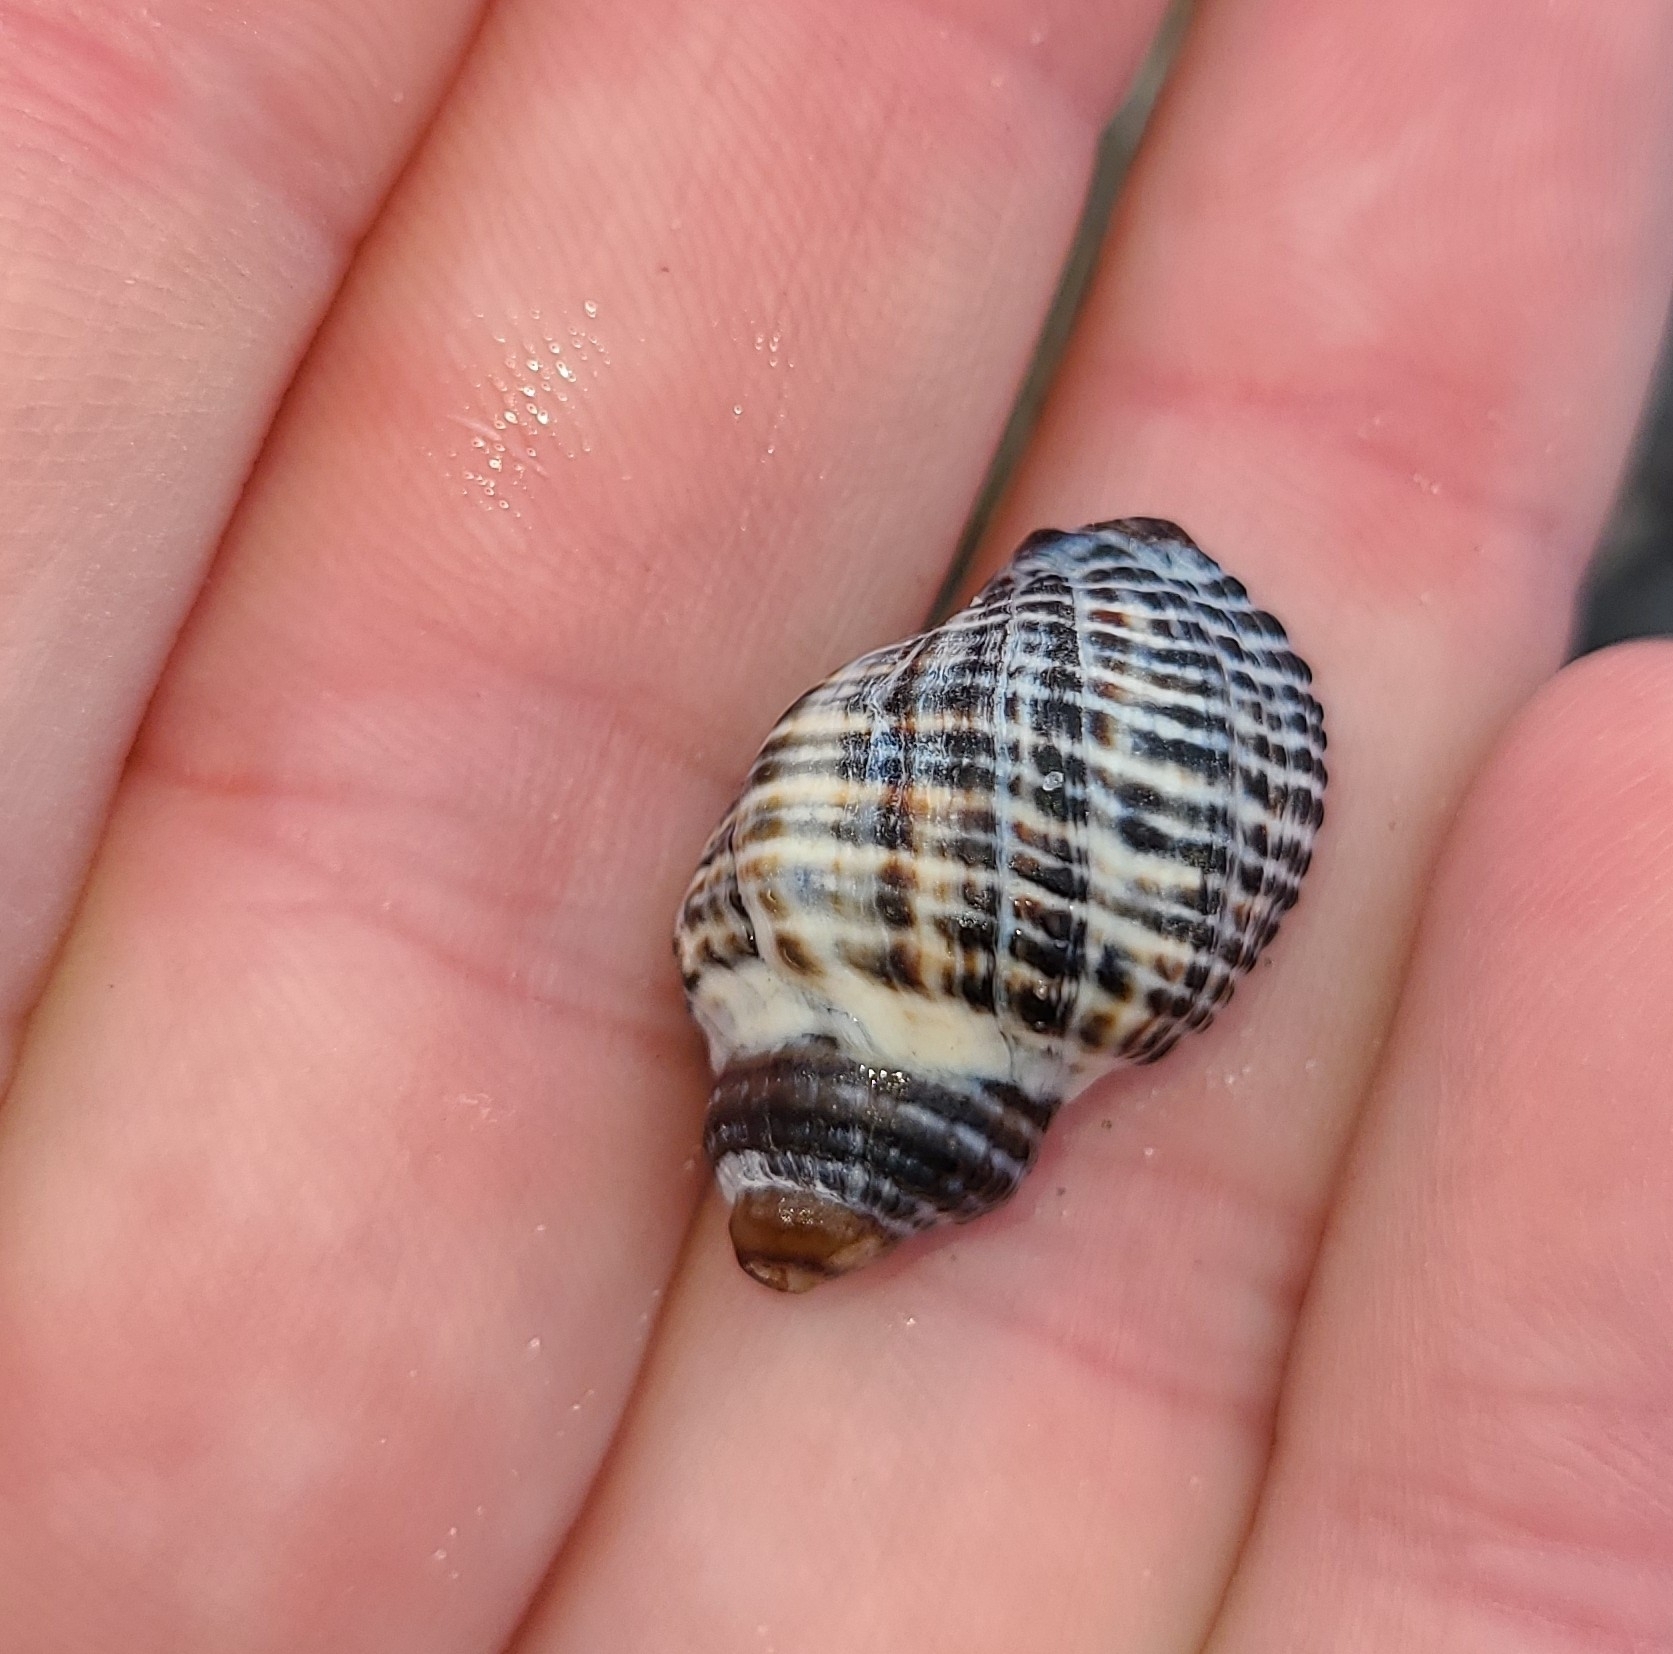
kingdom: Animalia
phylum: Mollusca
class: Gastropoda
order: Neogastropoda
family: Muricidae
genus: Haustrum
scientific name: Haustrum
